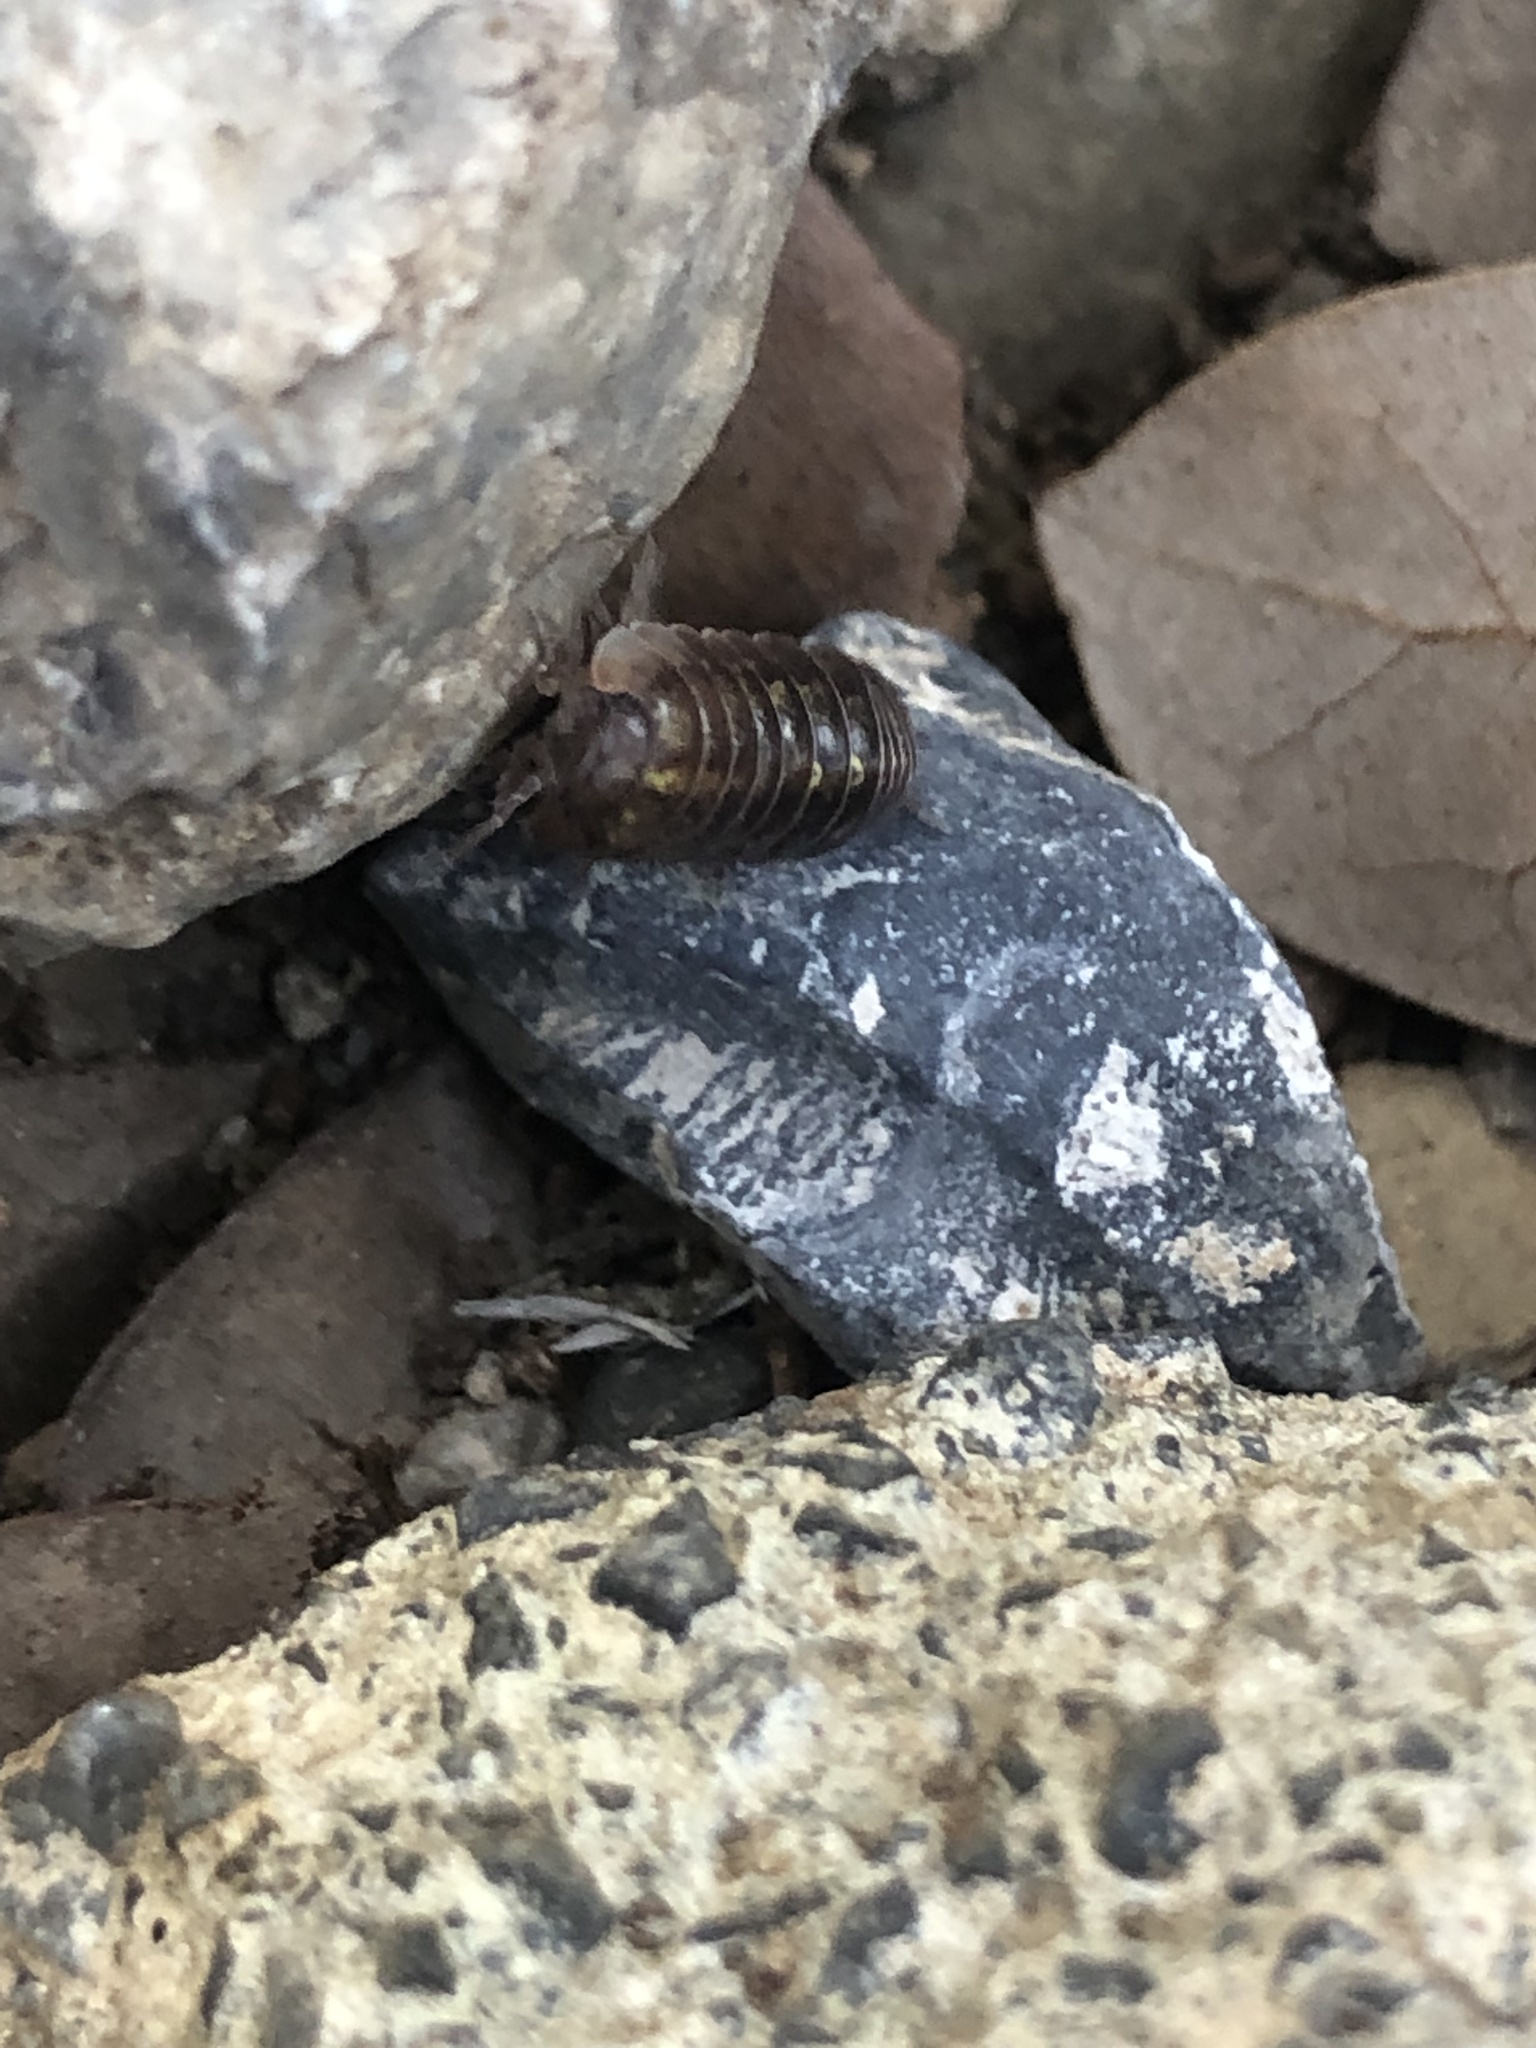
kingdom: Animalia
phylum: Arthropoda
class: Malacostraca
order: Isopoda
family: Armadillidiidae
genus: Armadillidium
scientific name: Armadillidium vulgare
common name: Common pill woodlouse
